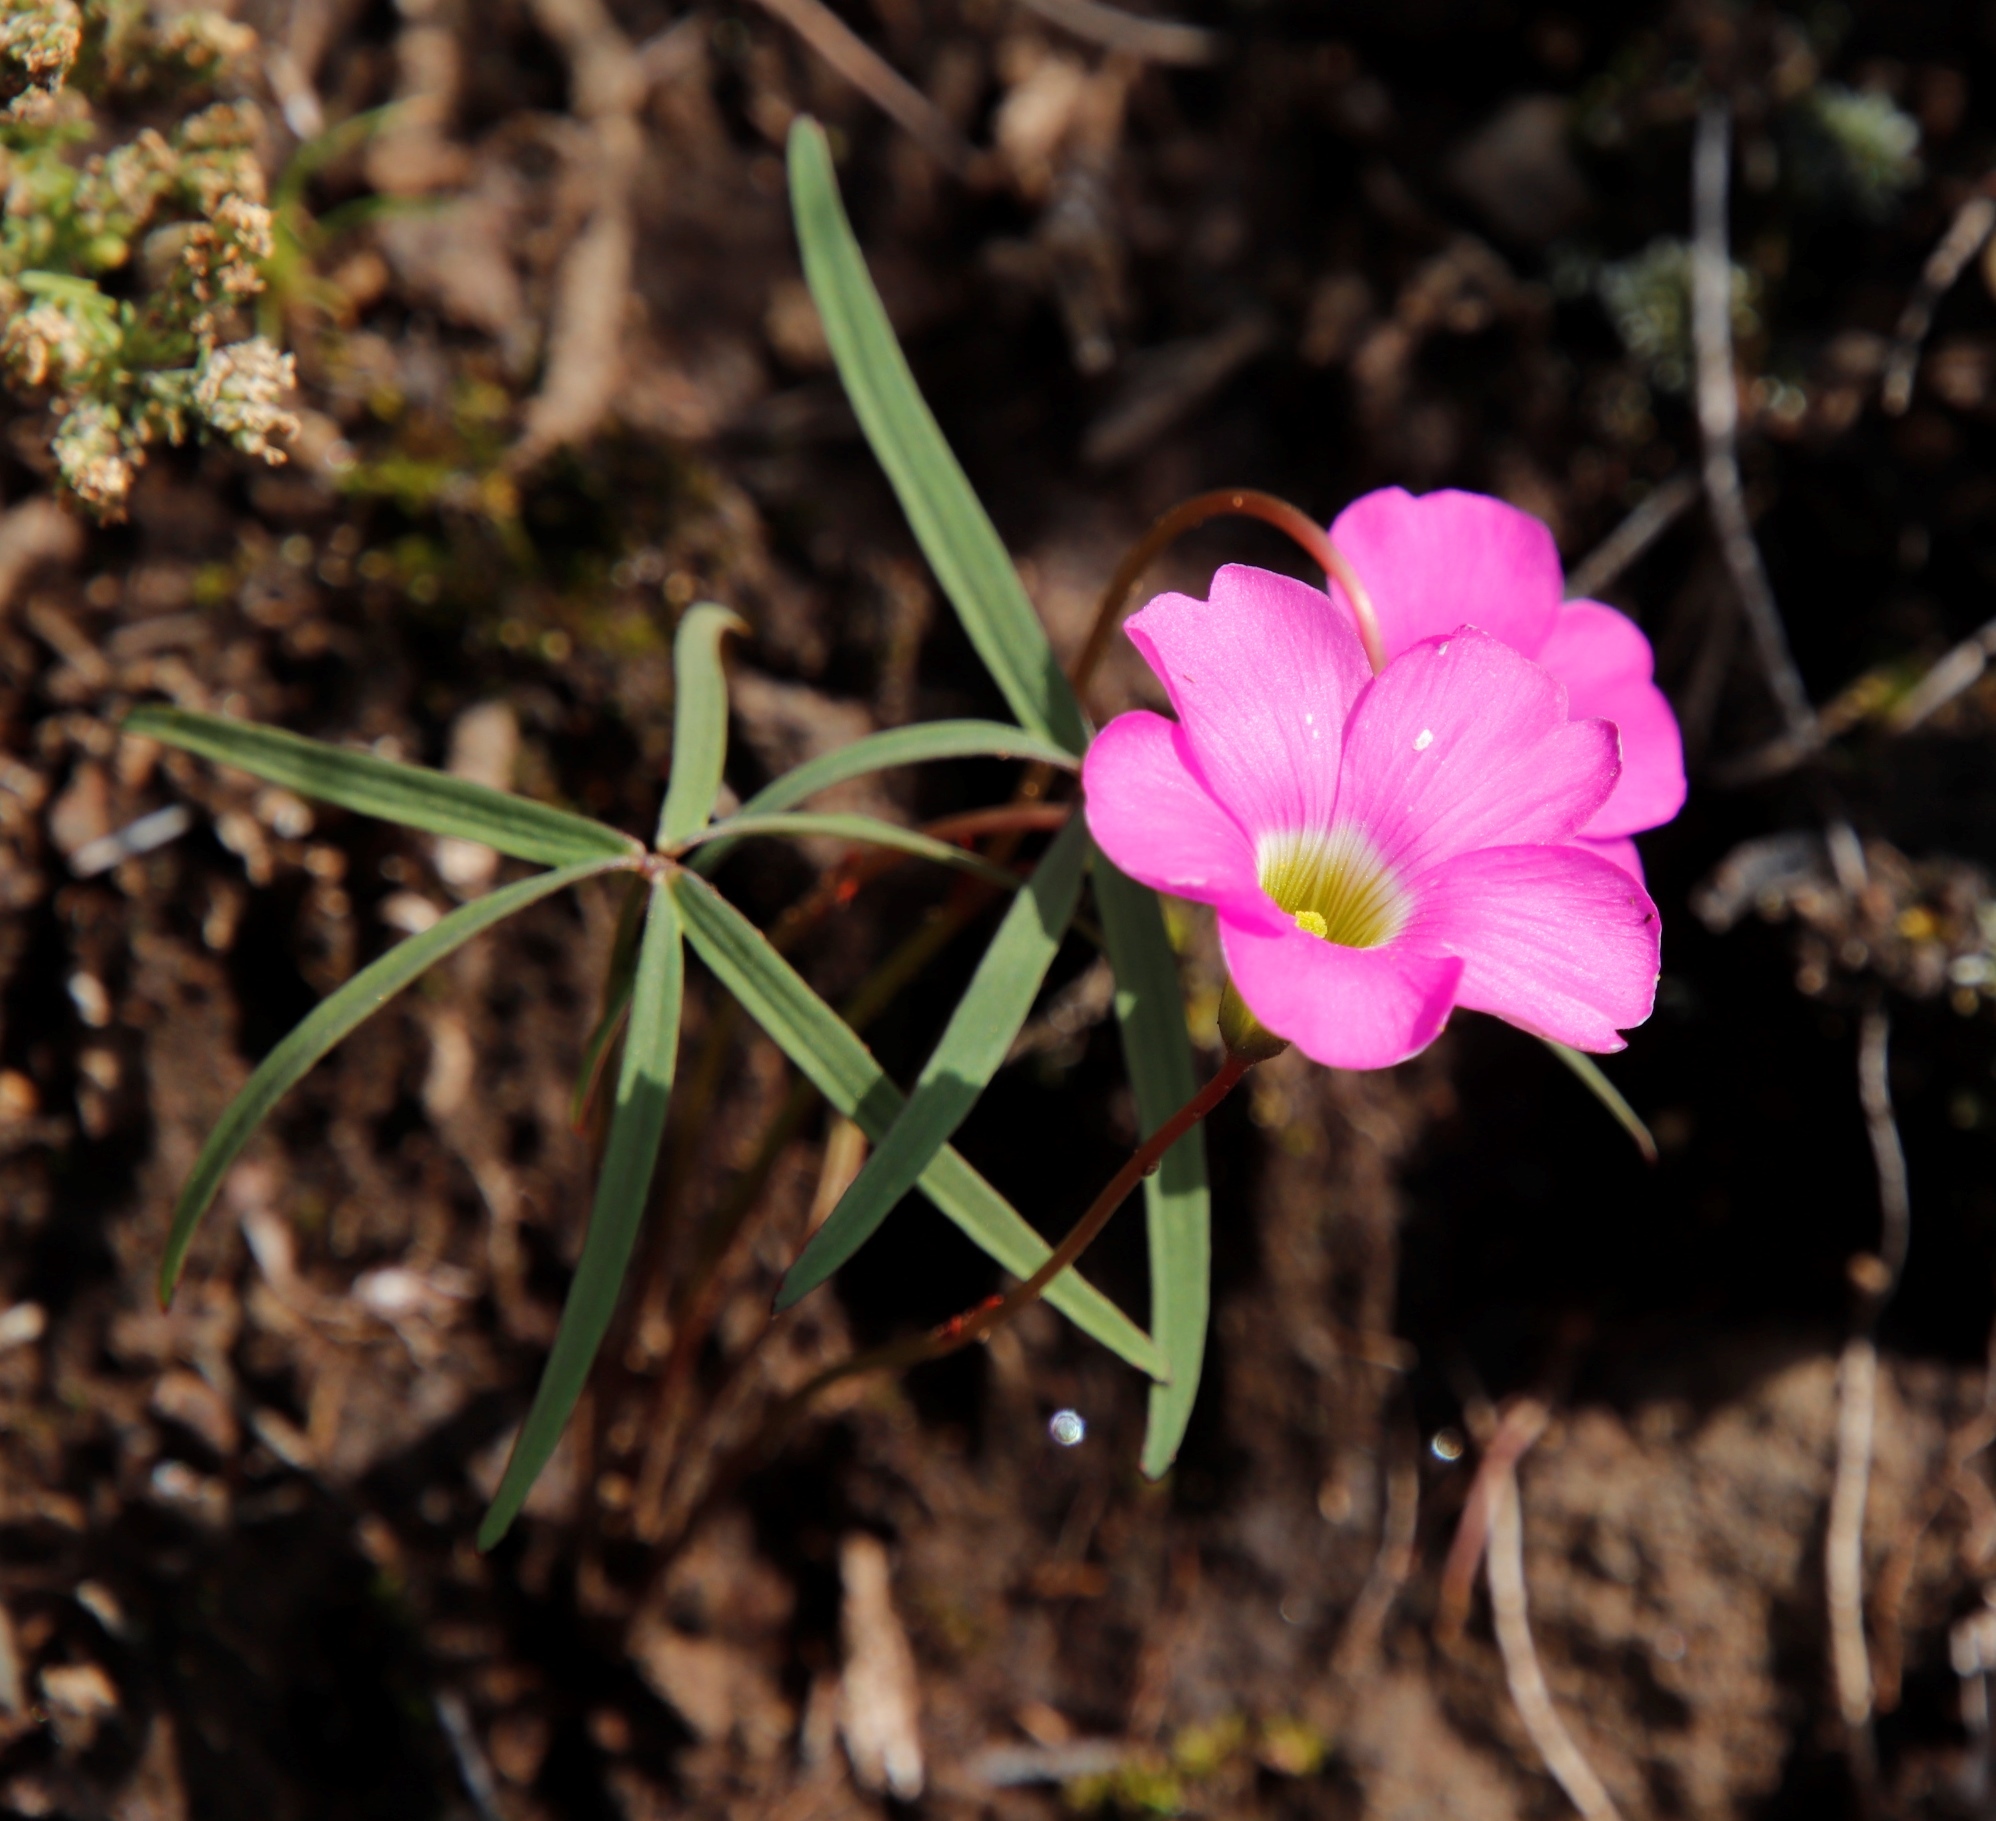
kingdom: Plantae
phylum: Tracheophyta
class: Magnoliopsida
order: Oxalidales
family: Oxalidaceae
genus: Oxalis
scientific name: Oxalis smithiana
